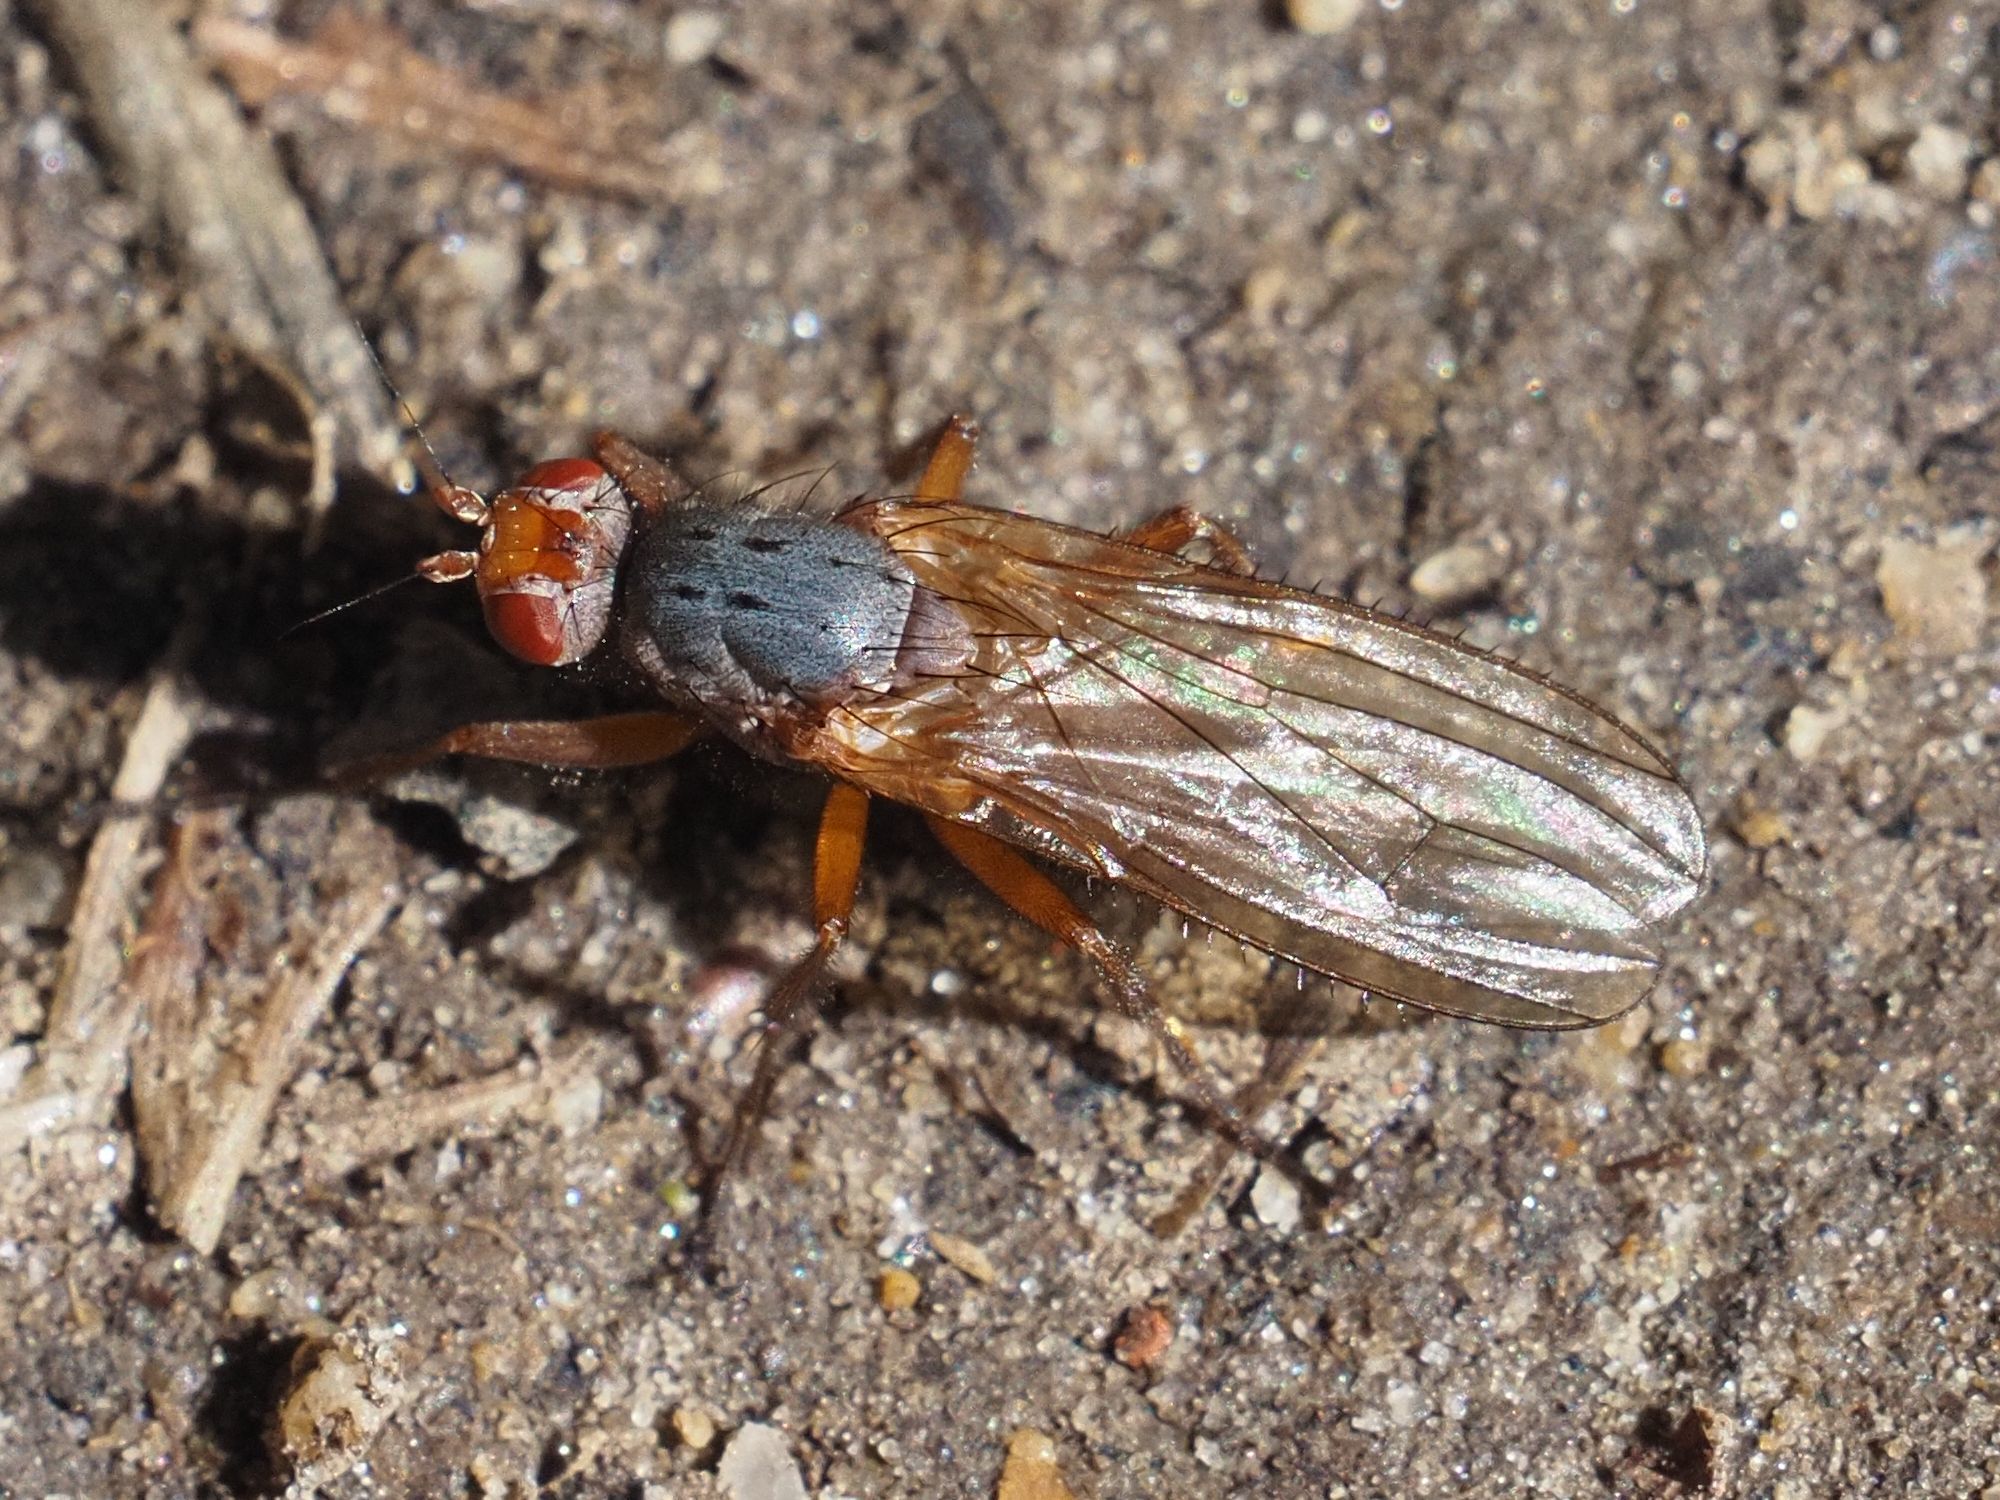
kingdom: Animalia
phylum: Arthropoda
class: Insecta
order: Diptera
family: Heleomyzidae
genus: Scoliocentra
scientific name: Scoliocentra villosa
